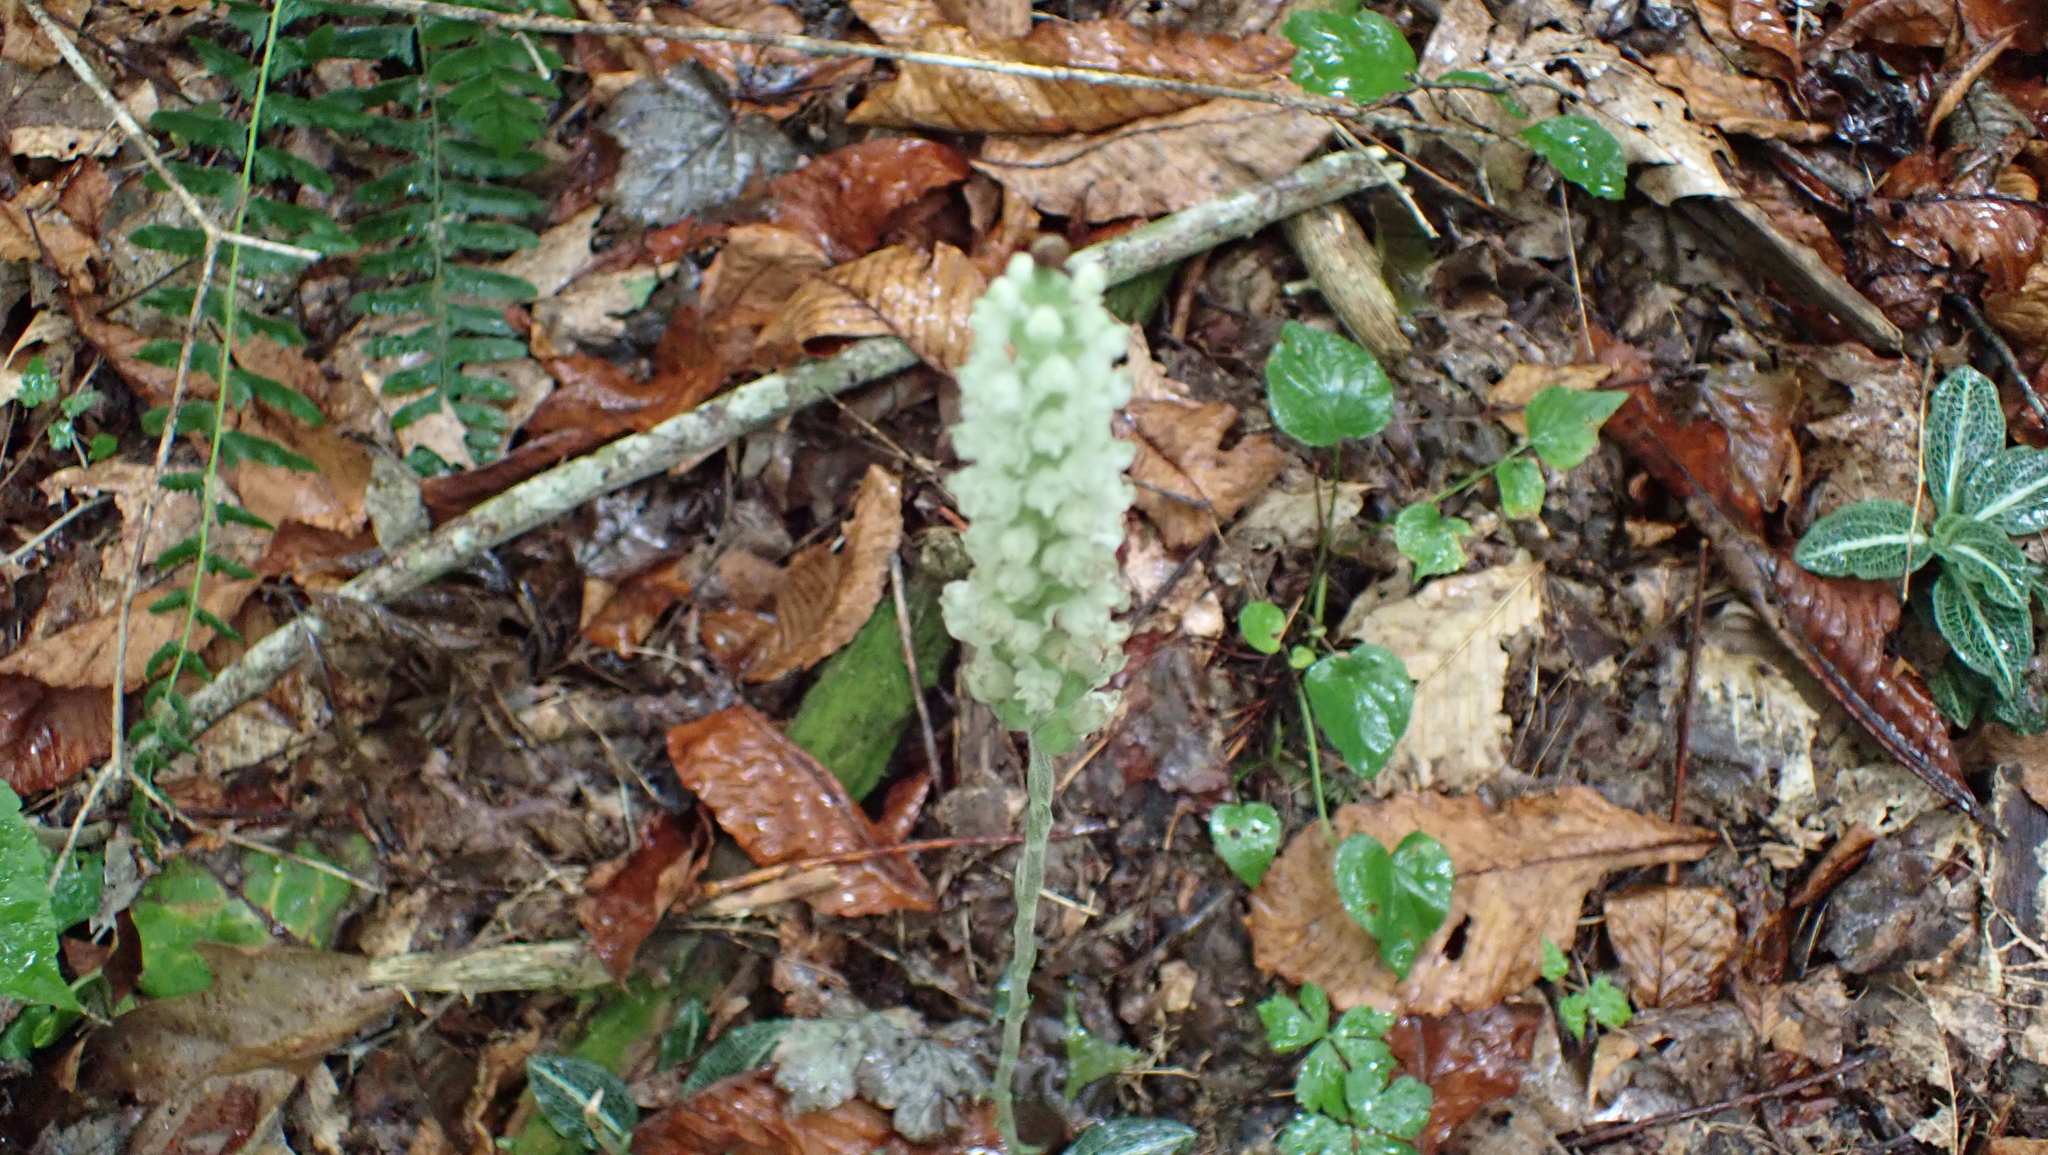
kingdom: Plantae
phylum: Tracheophyta
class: Liliopsida
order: Asparagales
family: Orchidaceae
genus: Goodyera
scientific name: Goodyera pubescens
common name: Downy rattlesnake-plantain
